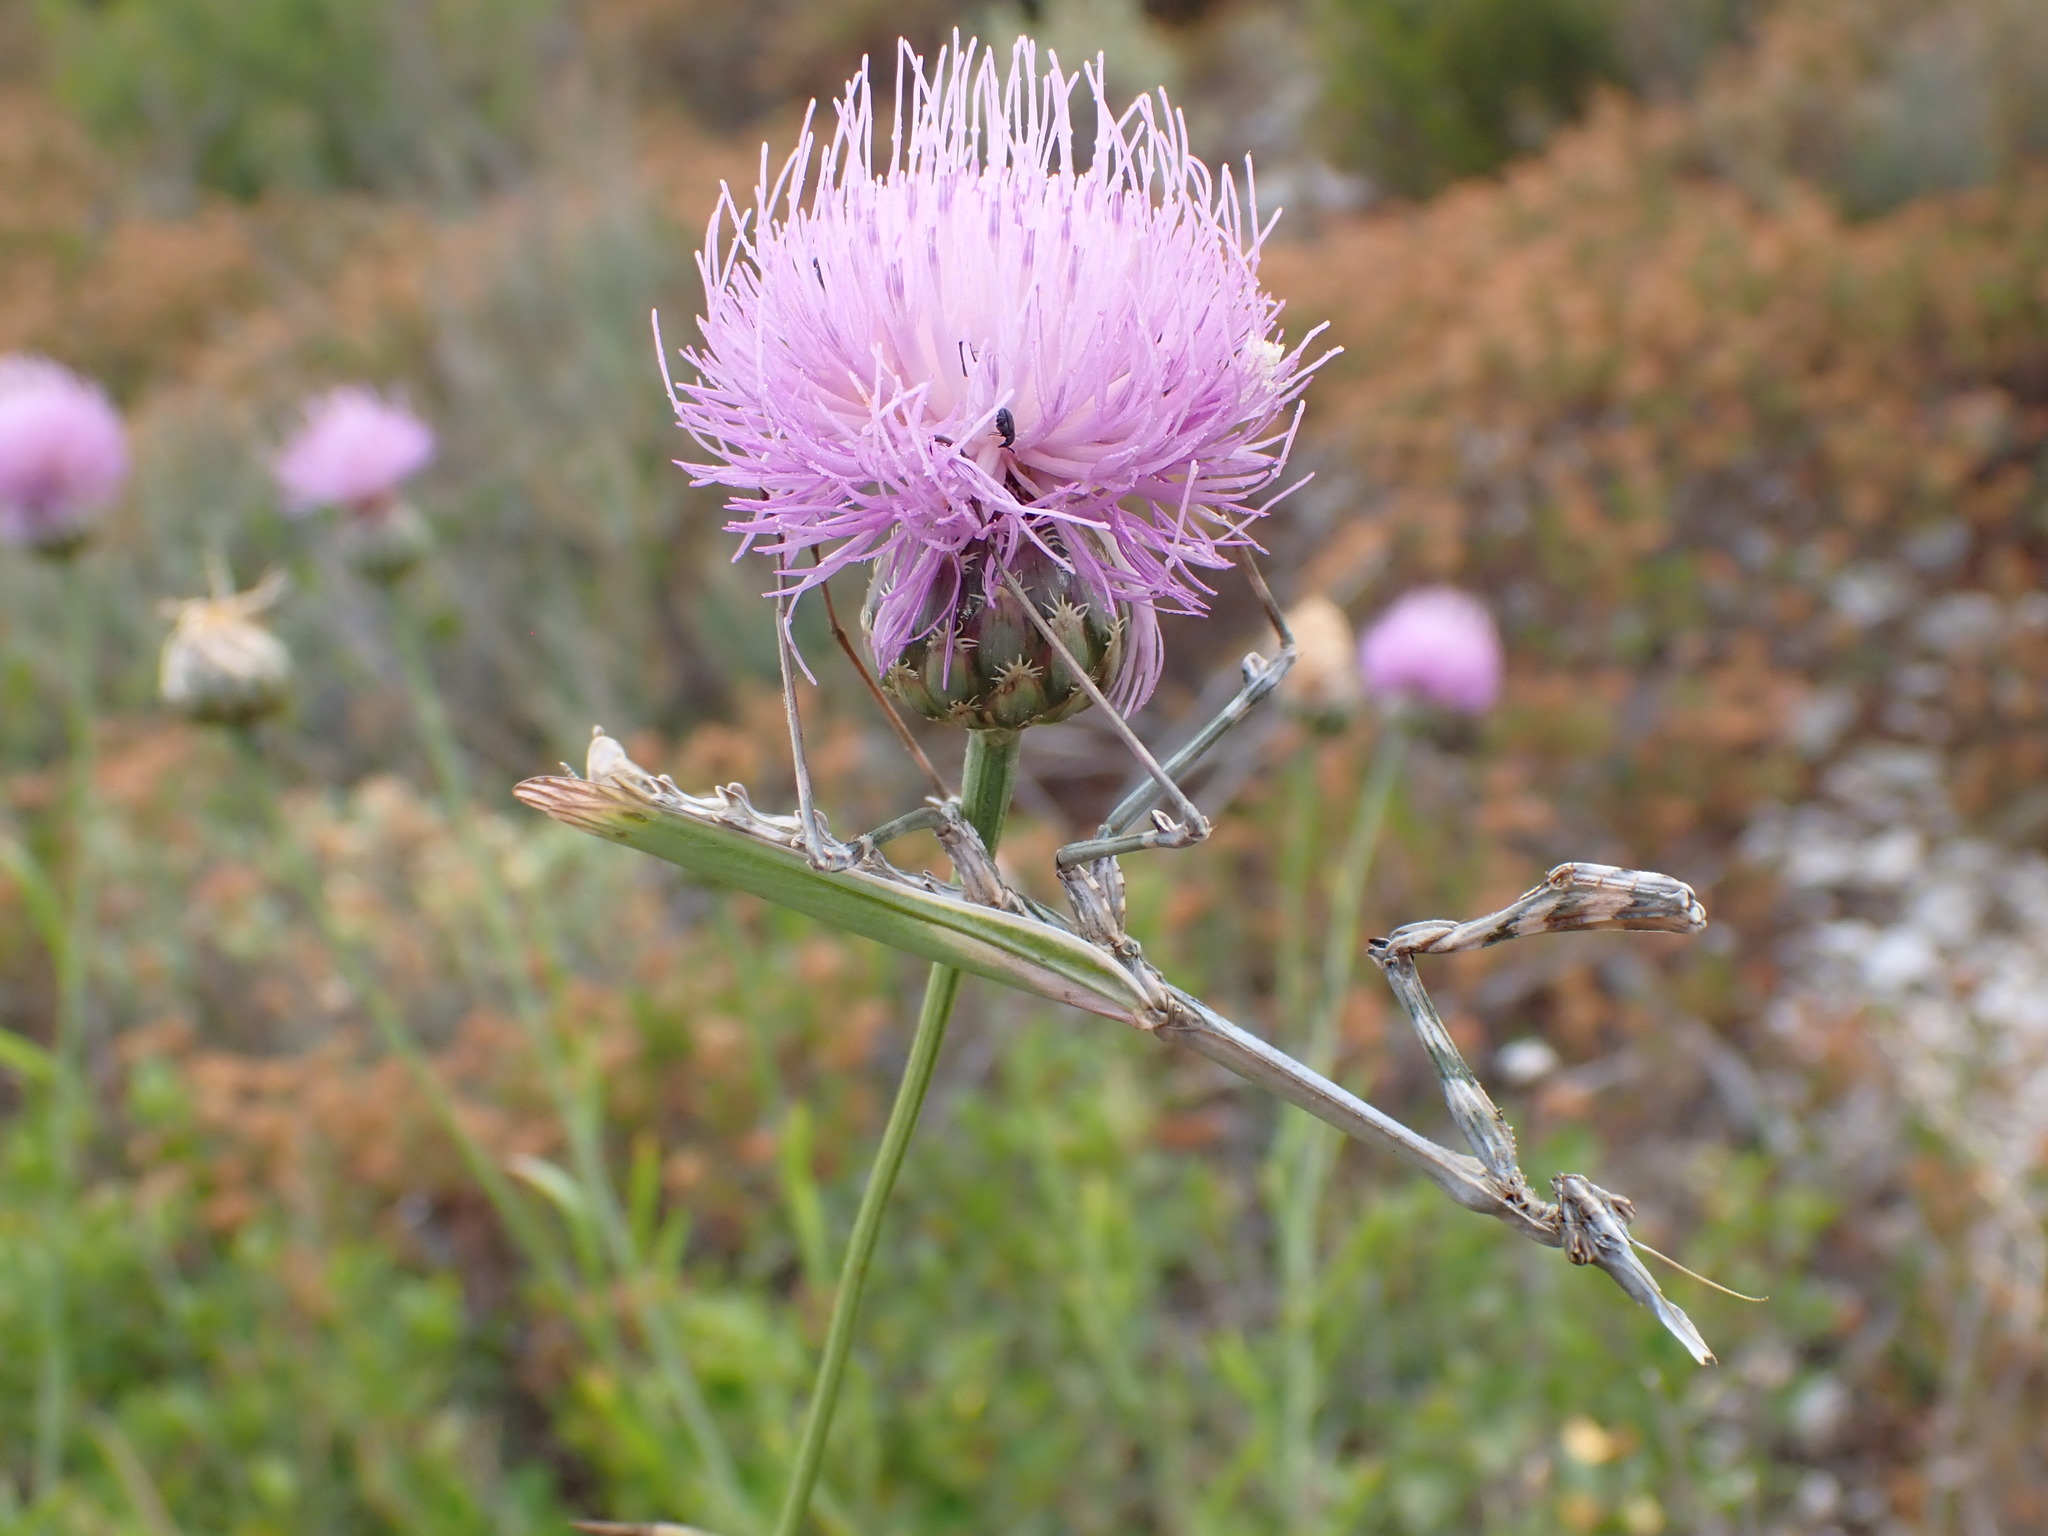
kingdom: Animalia
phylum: Arthropoda
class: Insecta
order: Mantodea
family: Empusidae
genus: Empusa
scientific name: Empusa pennata
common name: Conehead mantis
